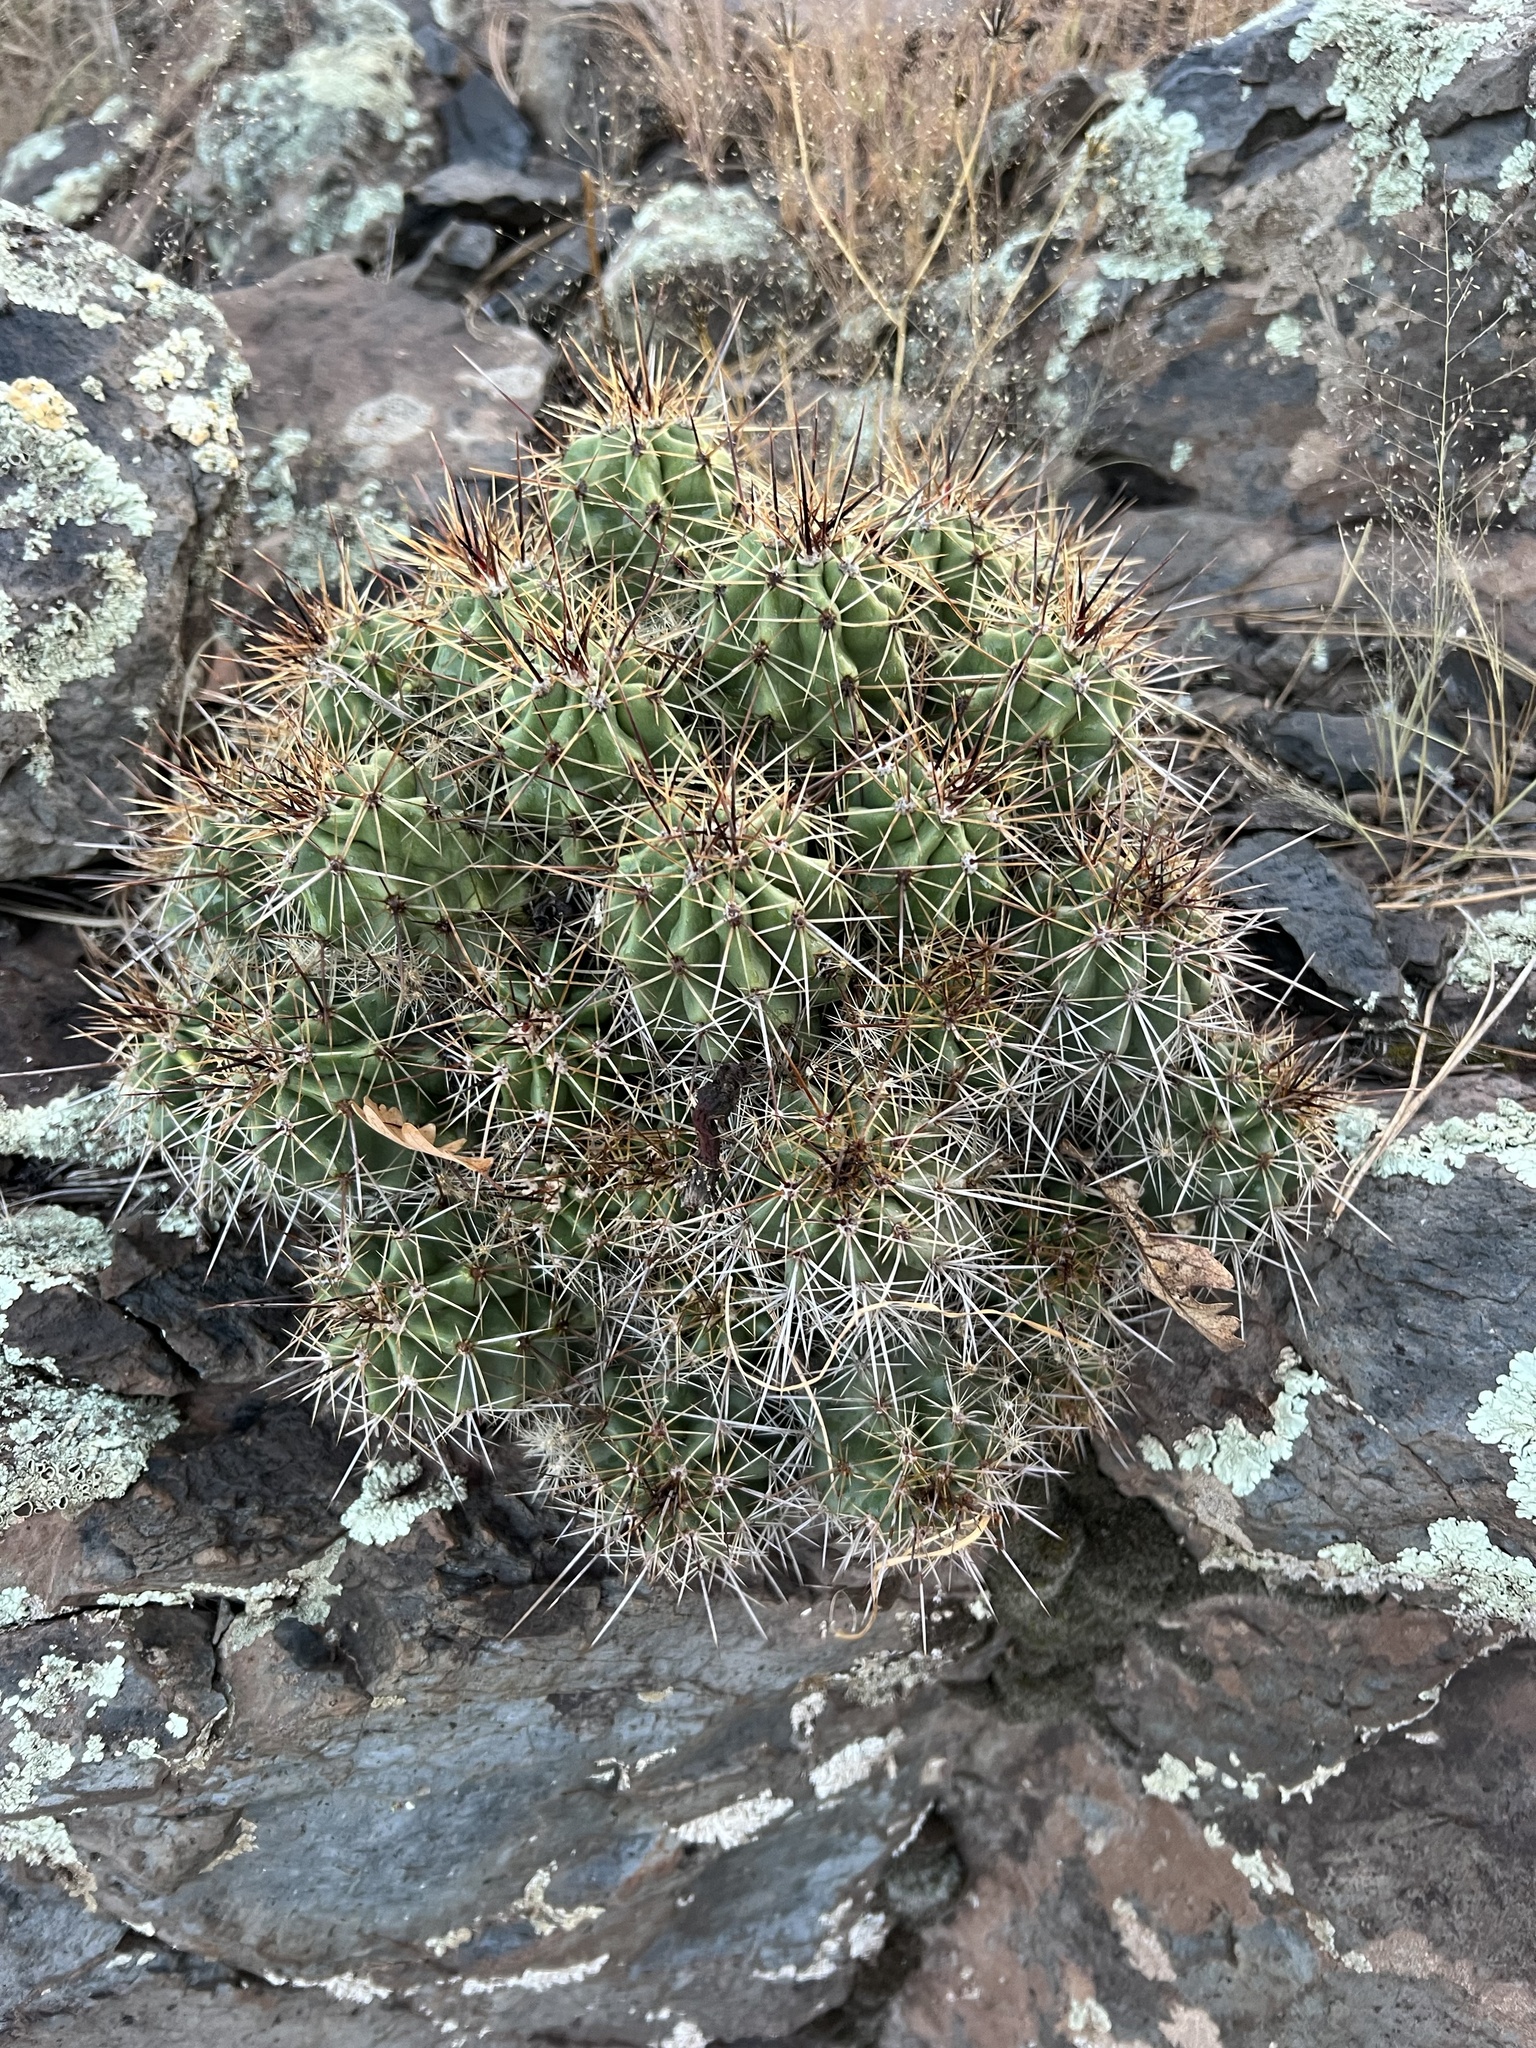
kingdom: Plantae
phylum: Tracheophyta
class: Magnoliopsida
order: Caryophyllales
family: Cactaceae
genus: Echinocereus
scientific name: Echinocereus bakeri
